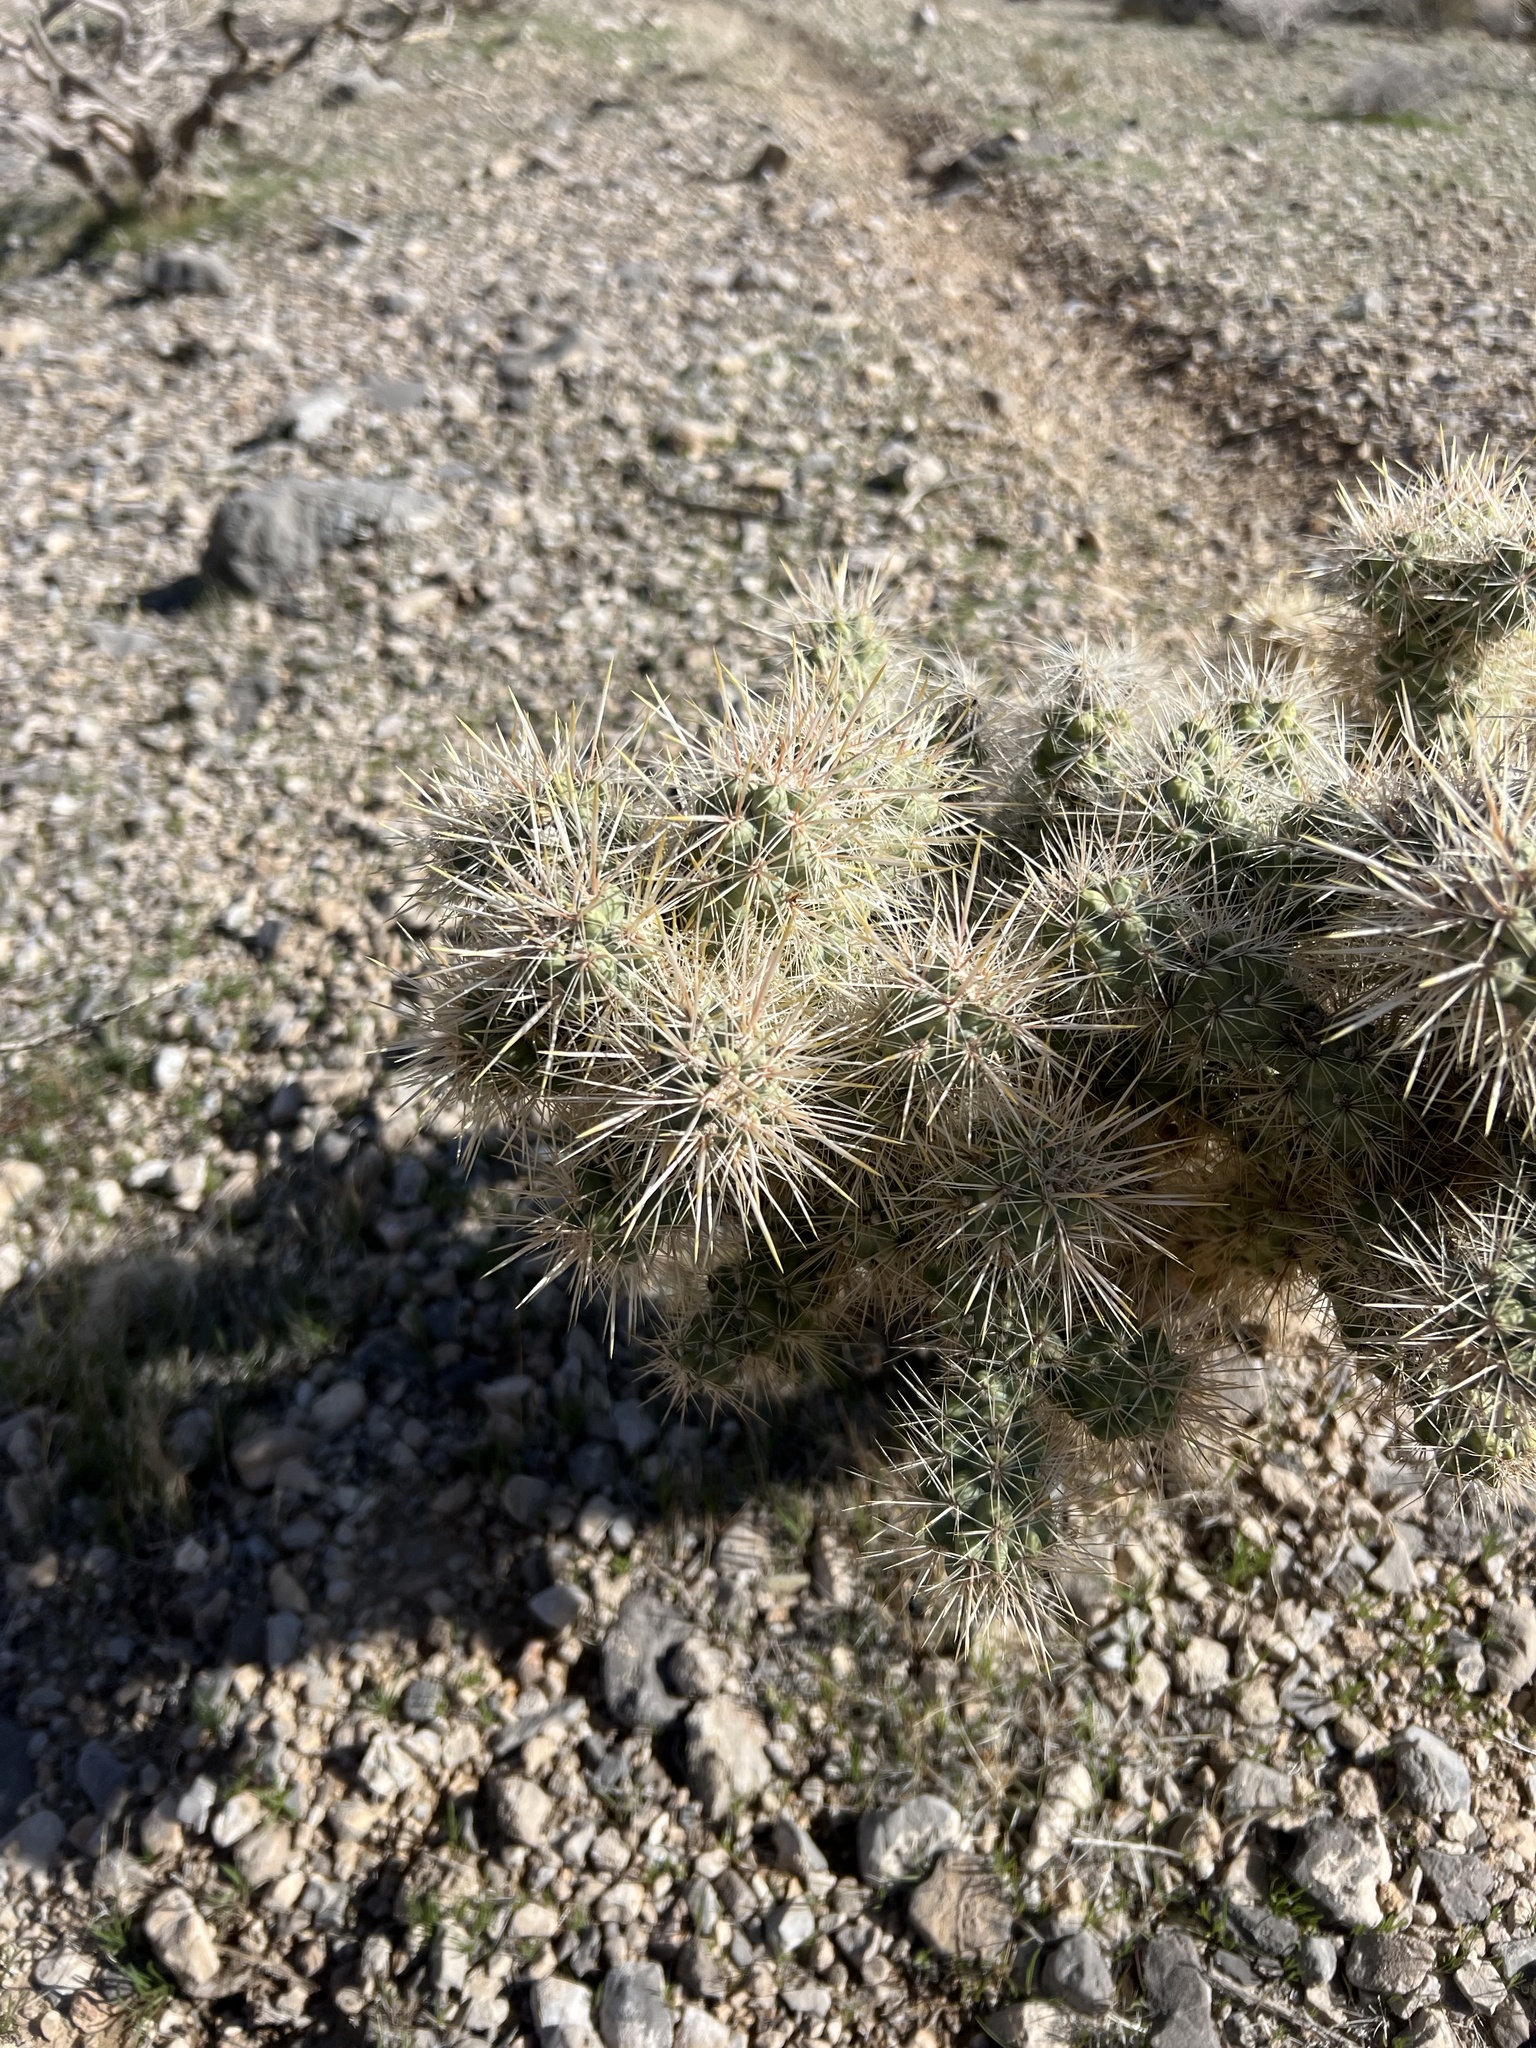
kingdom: Plantae
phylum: Tracheophyta
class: Magnoliopsida
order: Caryophyllales
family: Cactaceae
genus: Cylindropuntia
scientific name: Cylindropuntia echinocarpa
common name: Ground cholla
